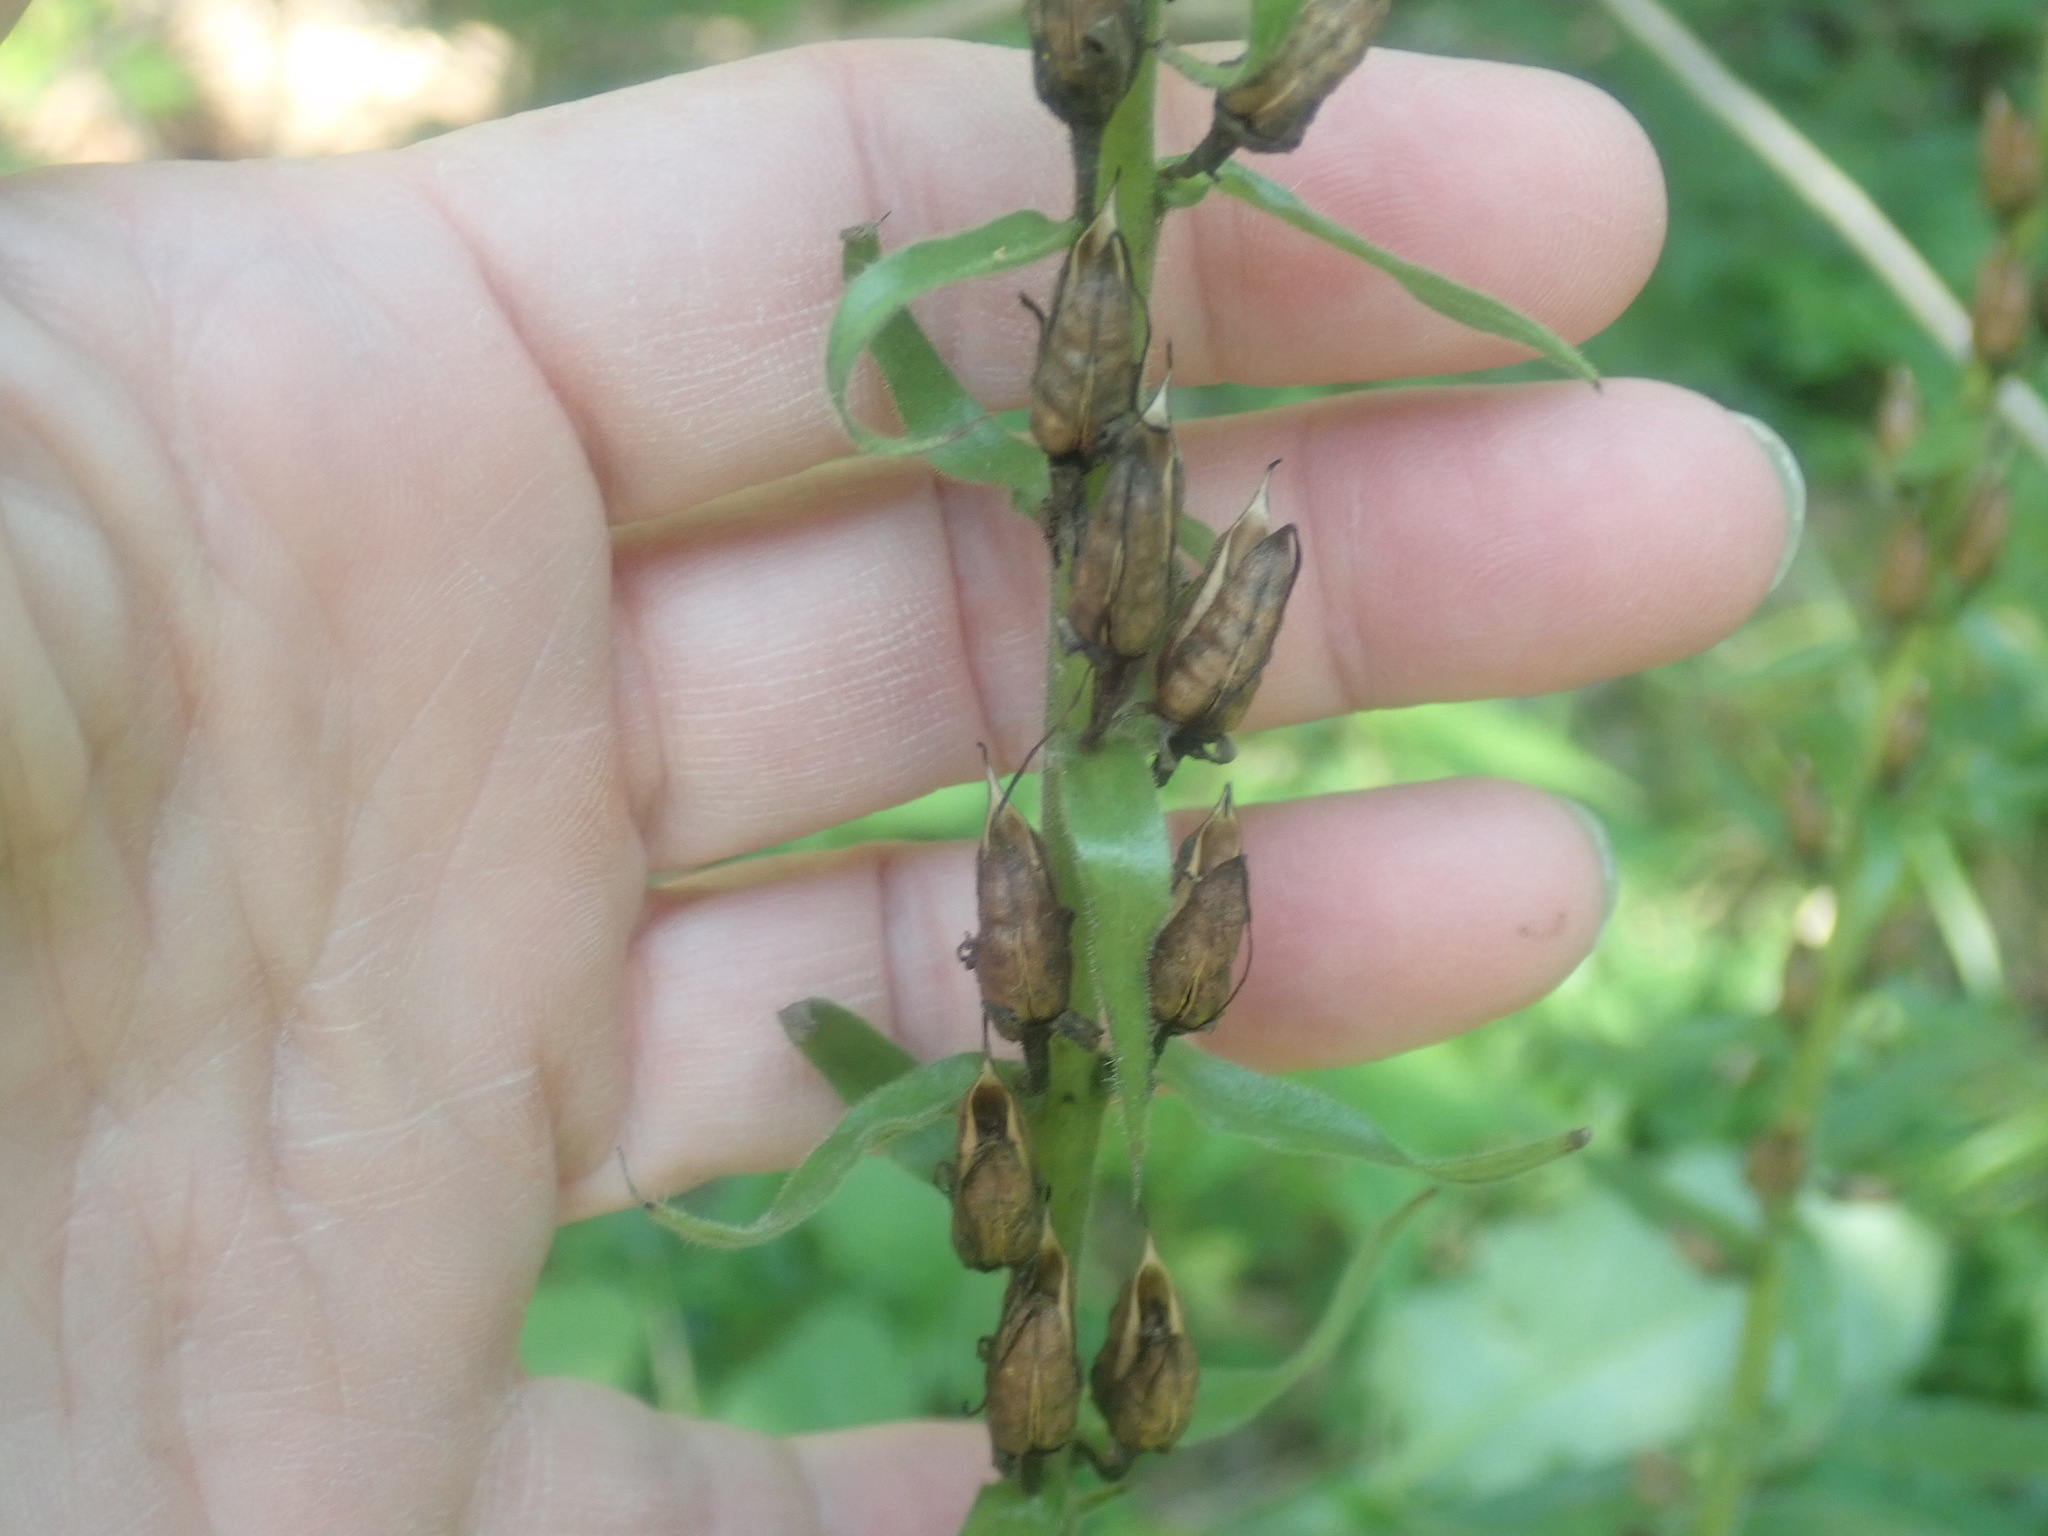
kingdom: Plantae
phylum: Tracheophyta
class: Magnoliopsida
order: Lamiales
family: Plantaginaceae
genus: Digitalis
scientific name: Digitalis grandiflora
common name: Yellow foxglove
